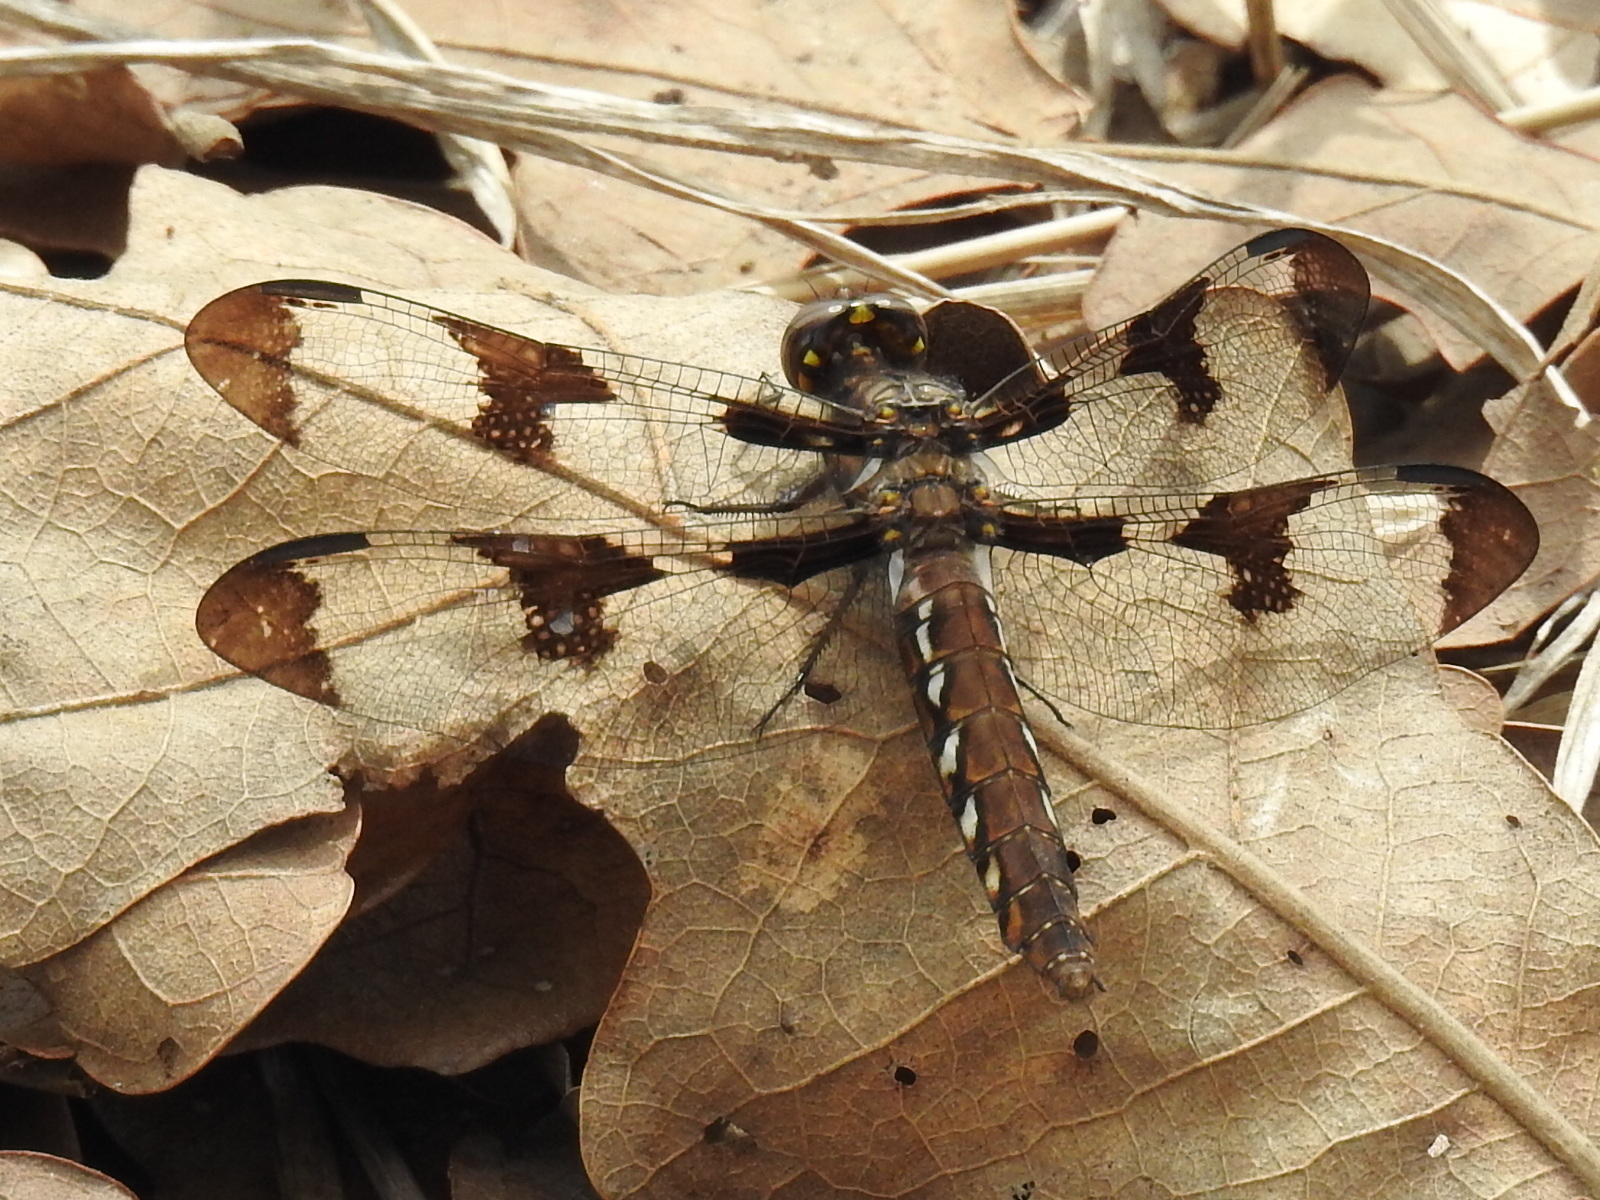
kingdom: Animalia
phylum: Arthropoda
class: Insecta
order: Odonata
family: Libellulidae
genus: Plathemis
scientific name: Plathemis lydia
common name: Common whitetail
